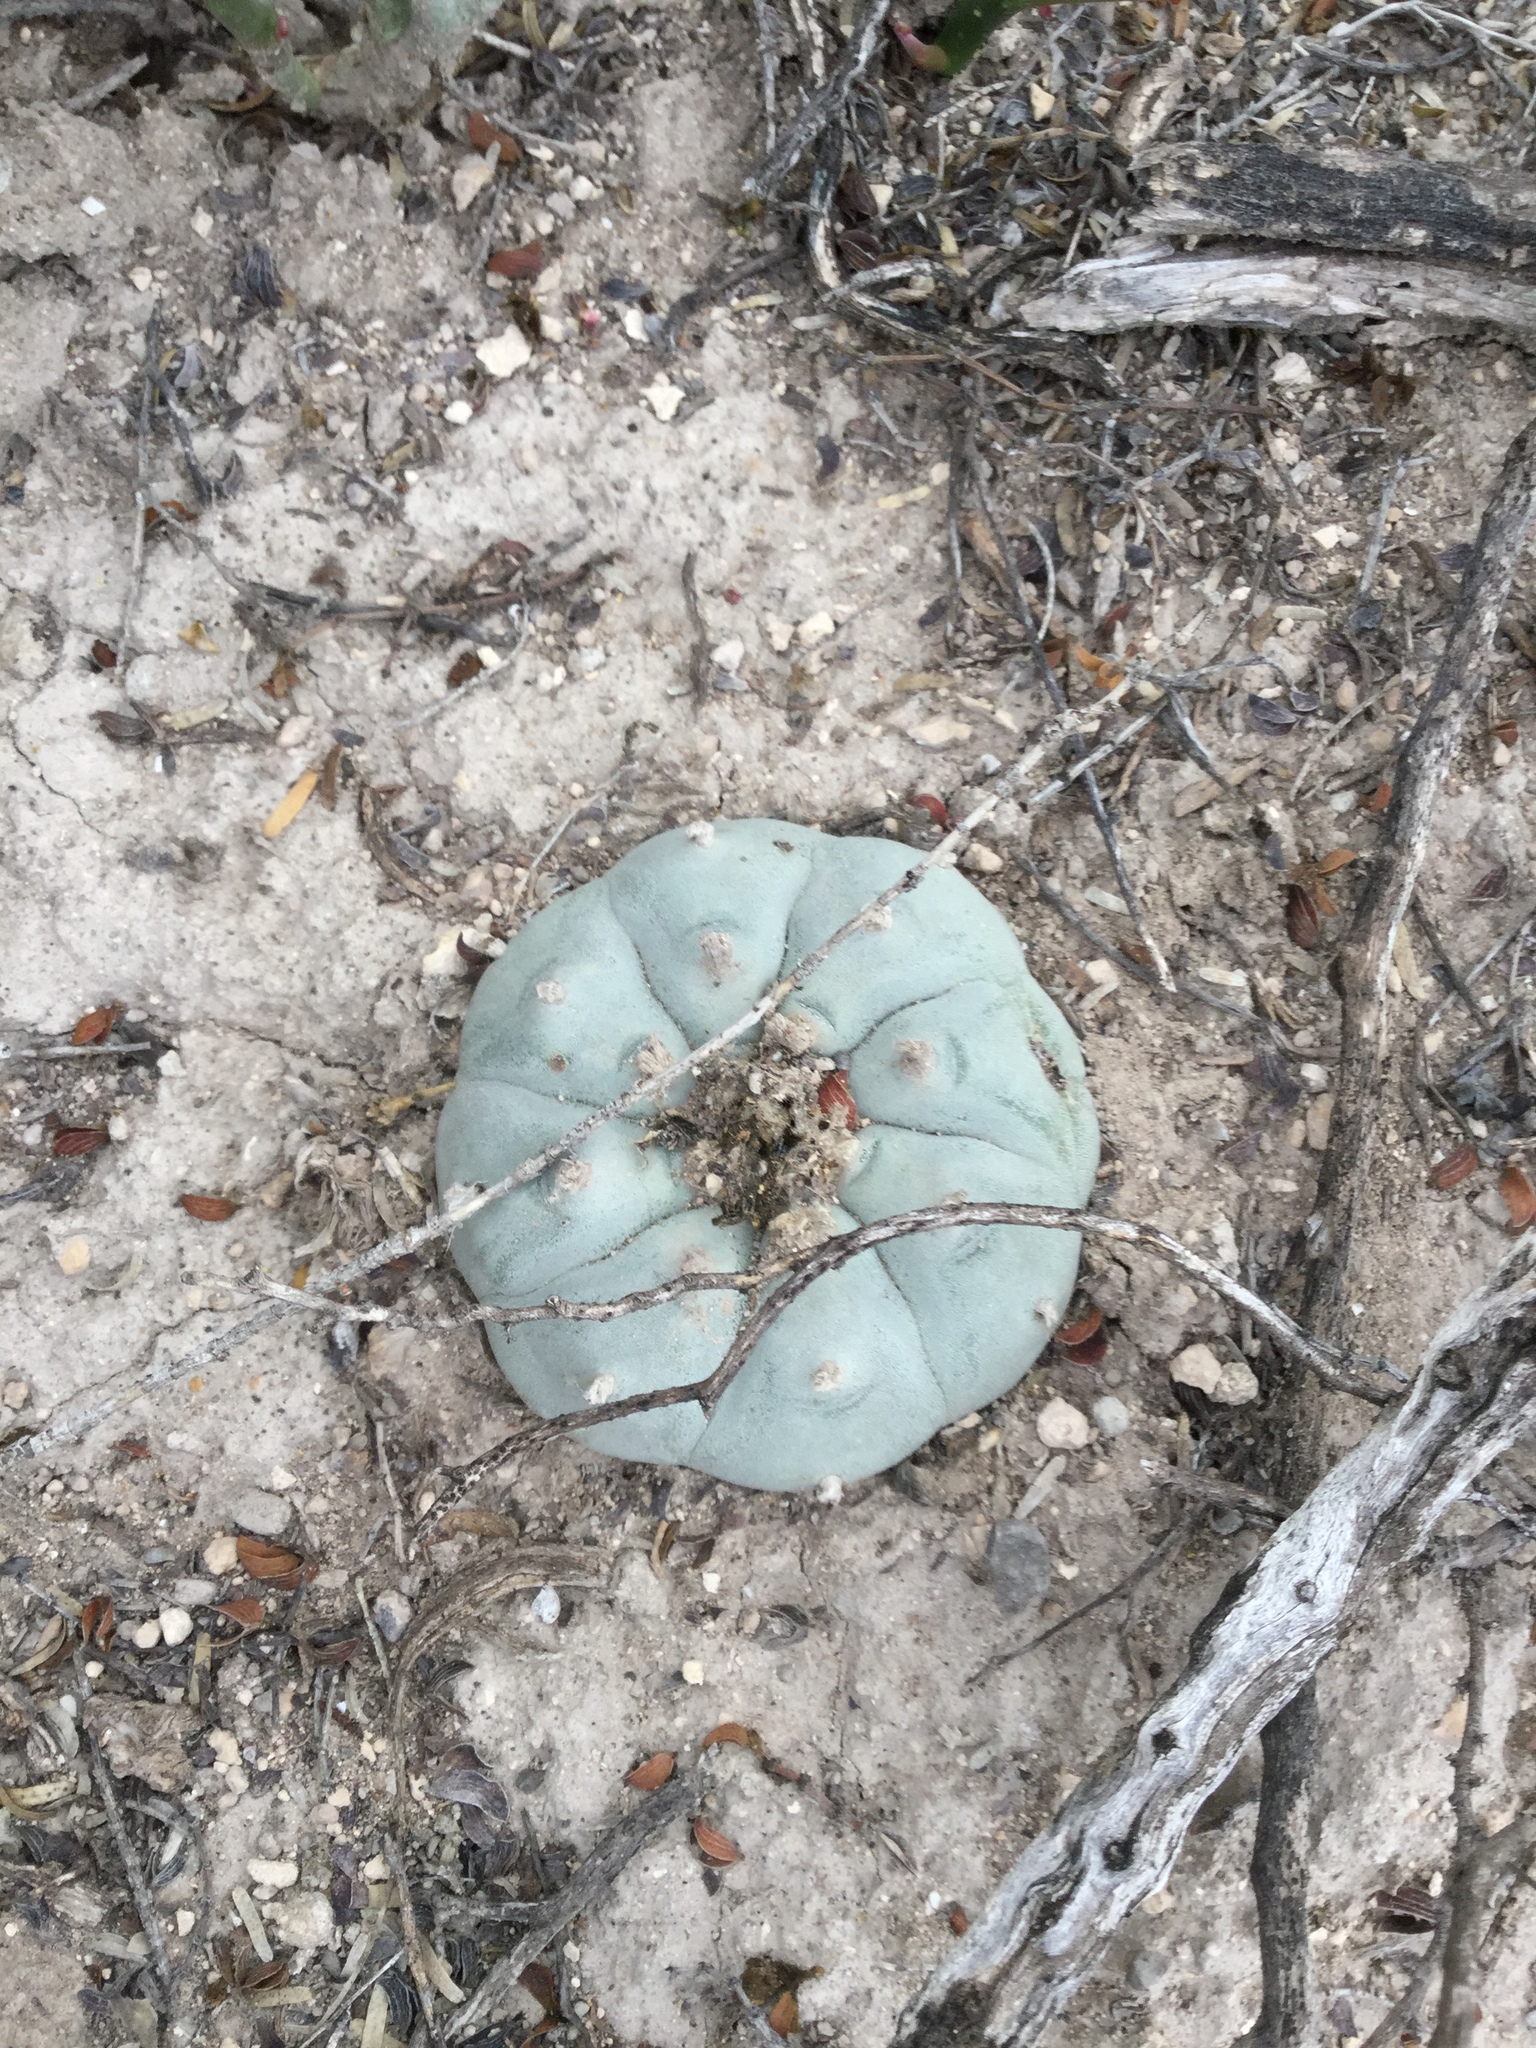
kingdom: Plantae
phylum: Tracheophyta
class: Magnoliopsida
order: Caryophyllales
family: Cactaceae
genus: Lophophora
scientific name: Lophophora williamsii
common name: Indian-dope
